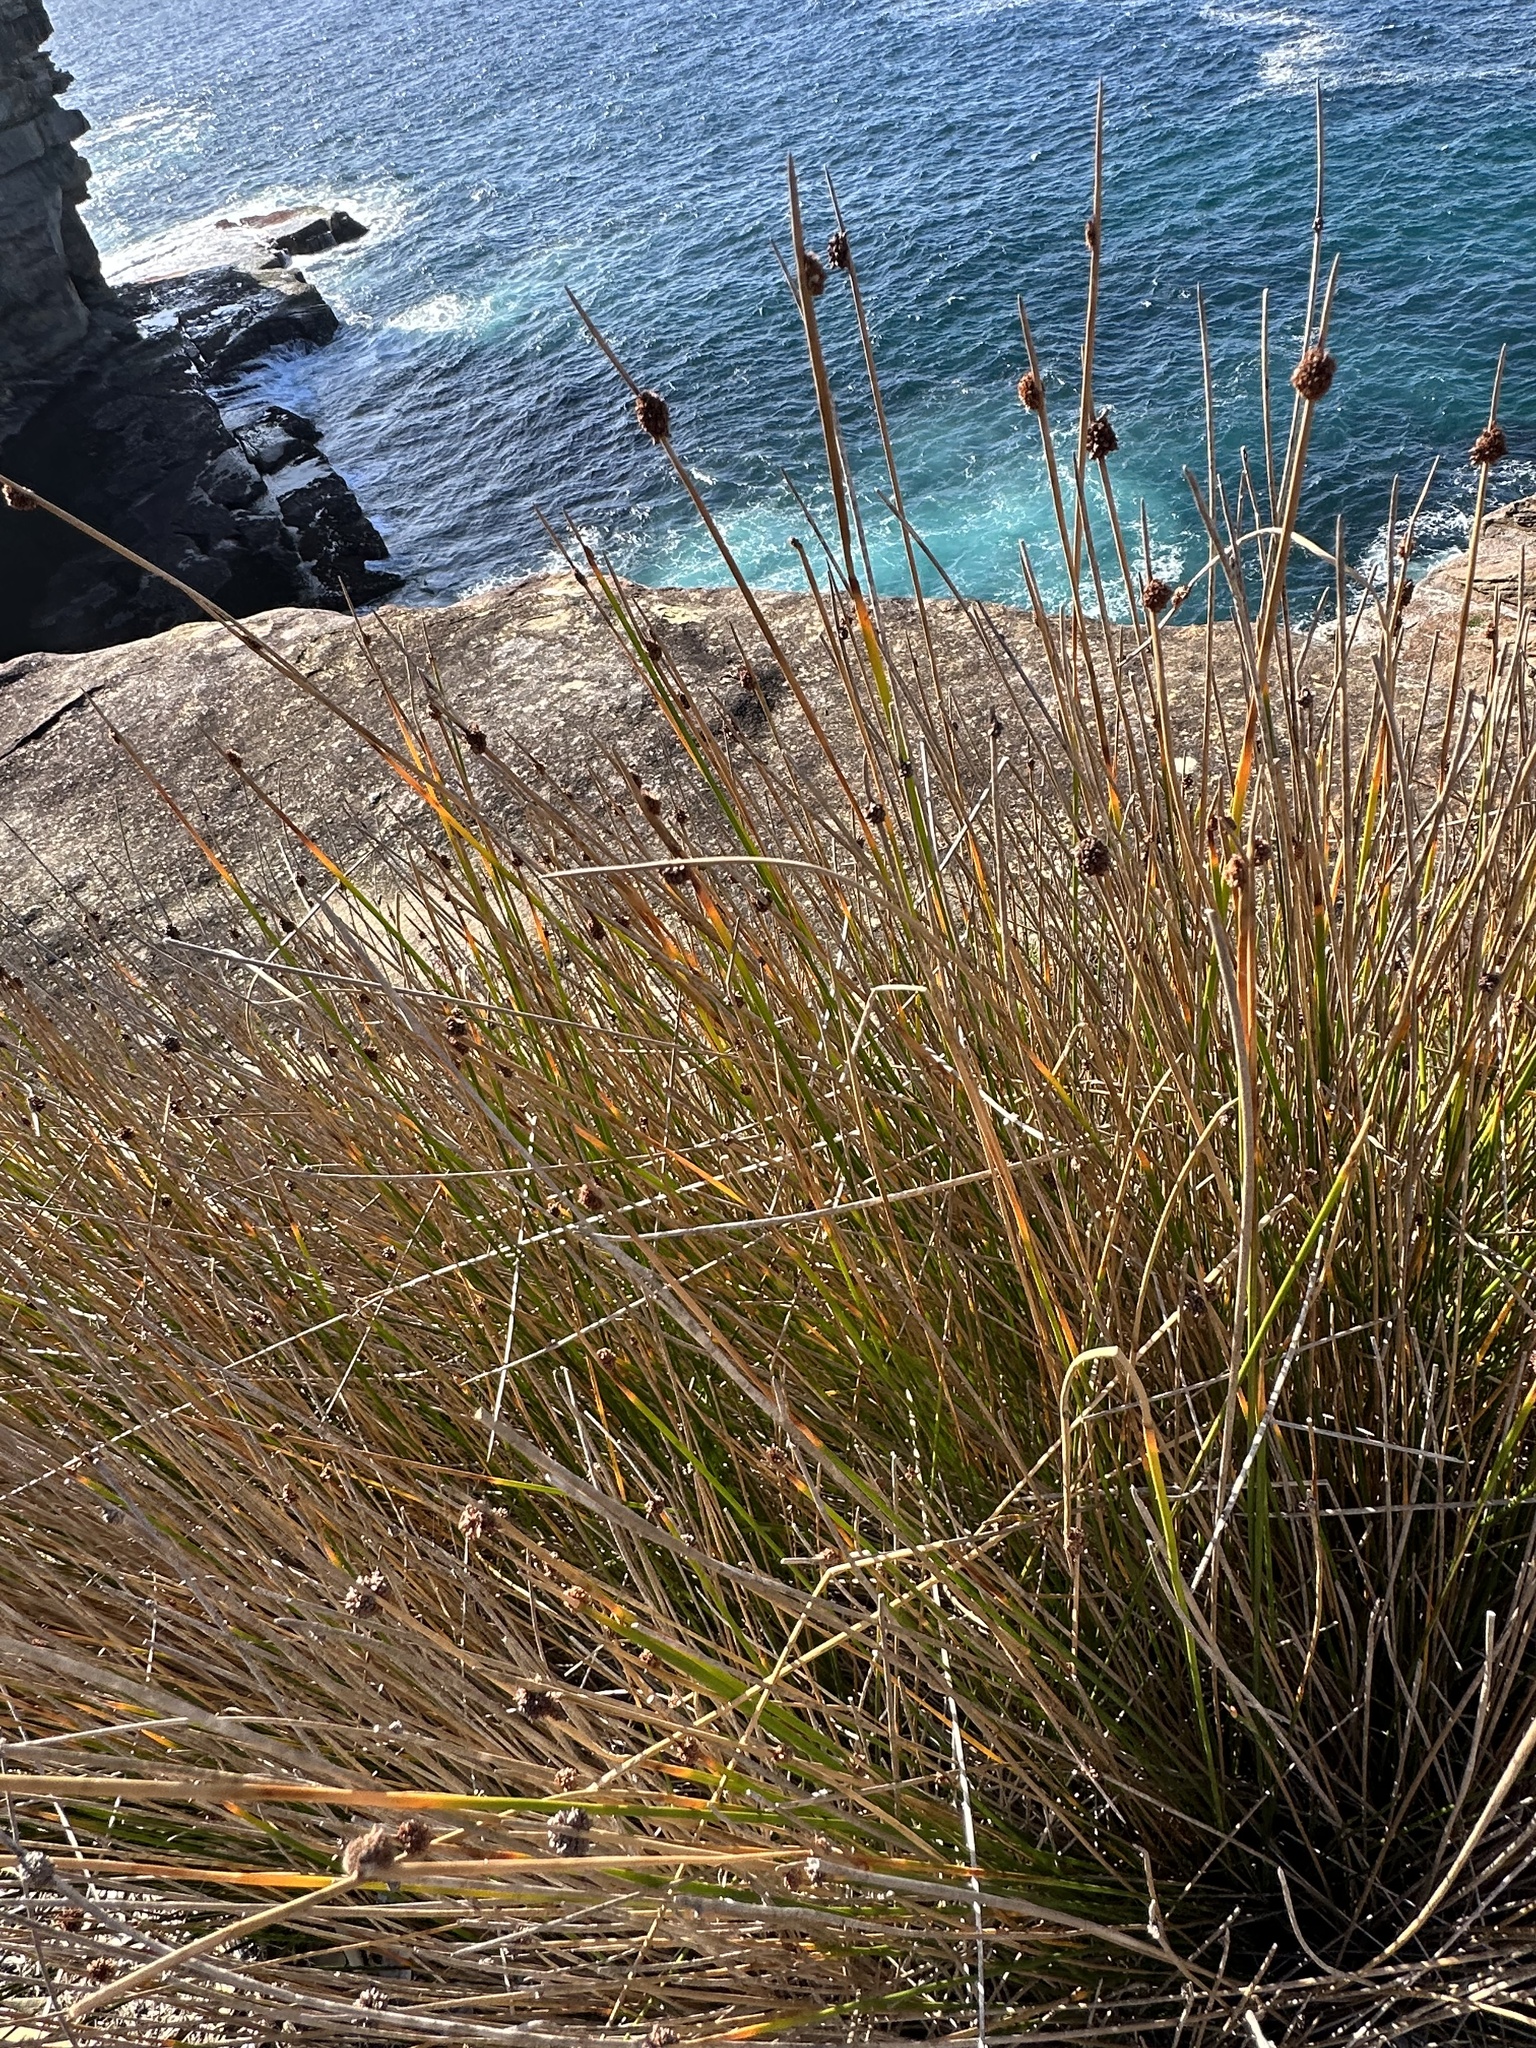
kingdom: Plantae
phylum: Tracheophyta
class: Liliopsida
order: Poales
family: Cyperaceae
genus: Ficinia
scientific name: Ficinia nodosa
